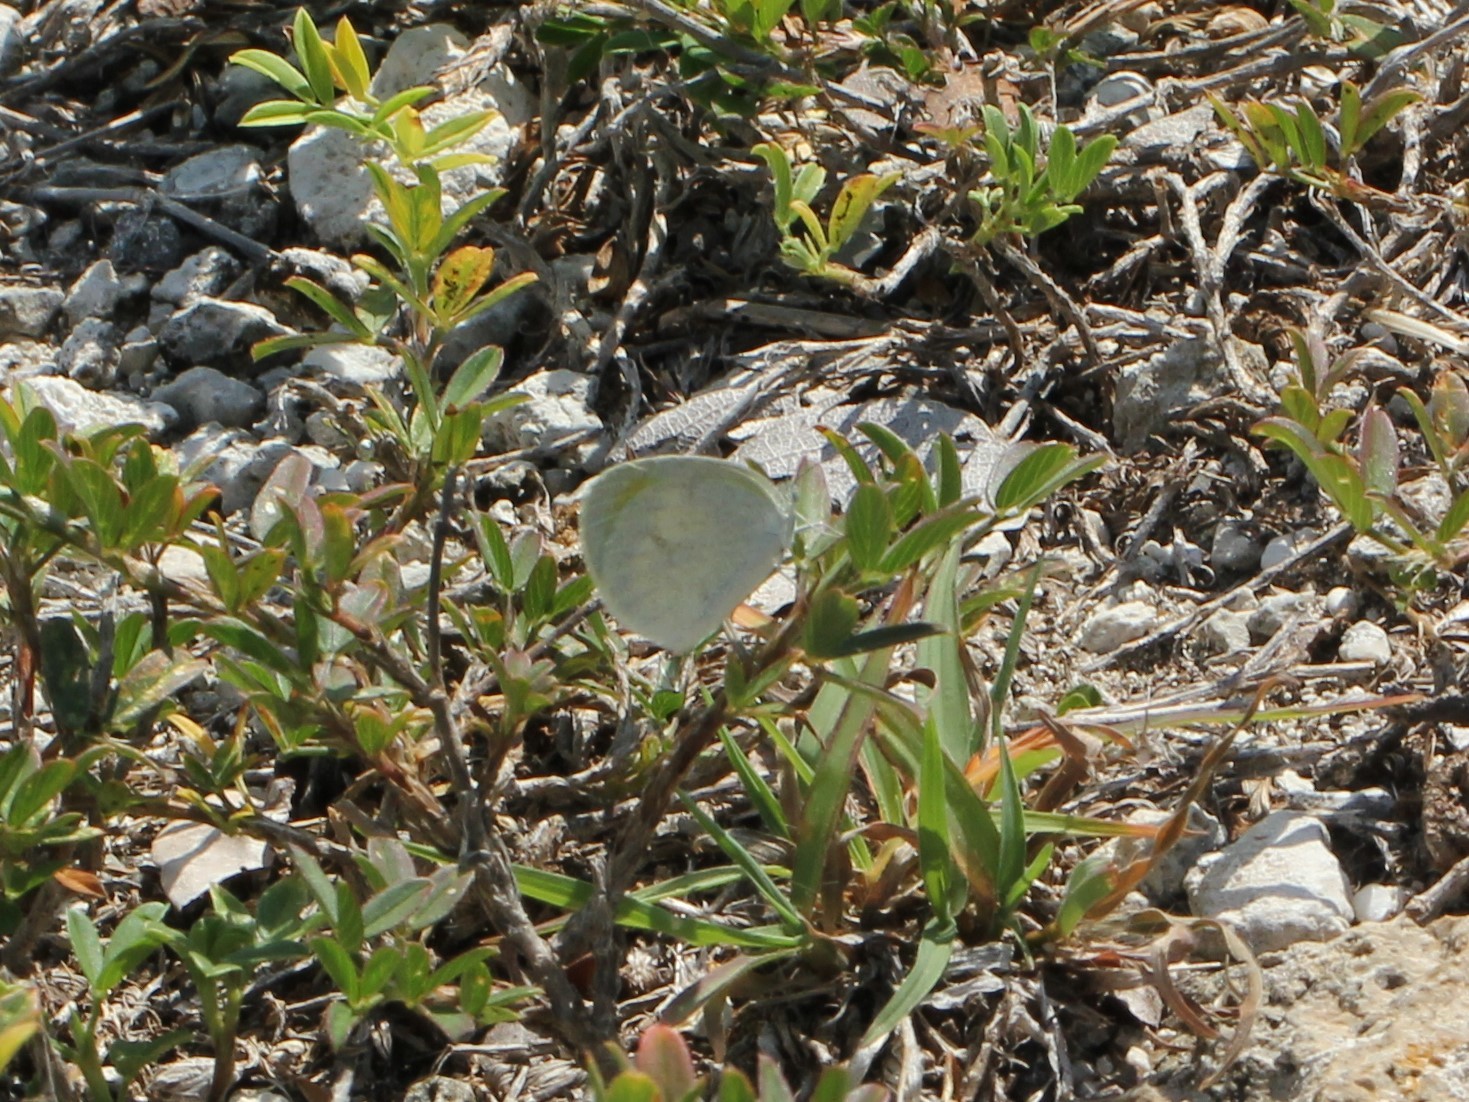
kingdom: Animalia
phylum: Arthropoda
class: Insecta
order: Lepidoptera
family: Pieridae
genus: Eurema
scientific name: Eurema daira
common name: Barred sulphur
